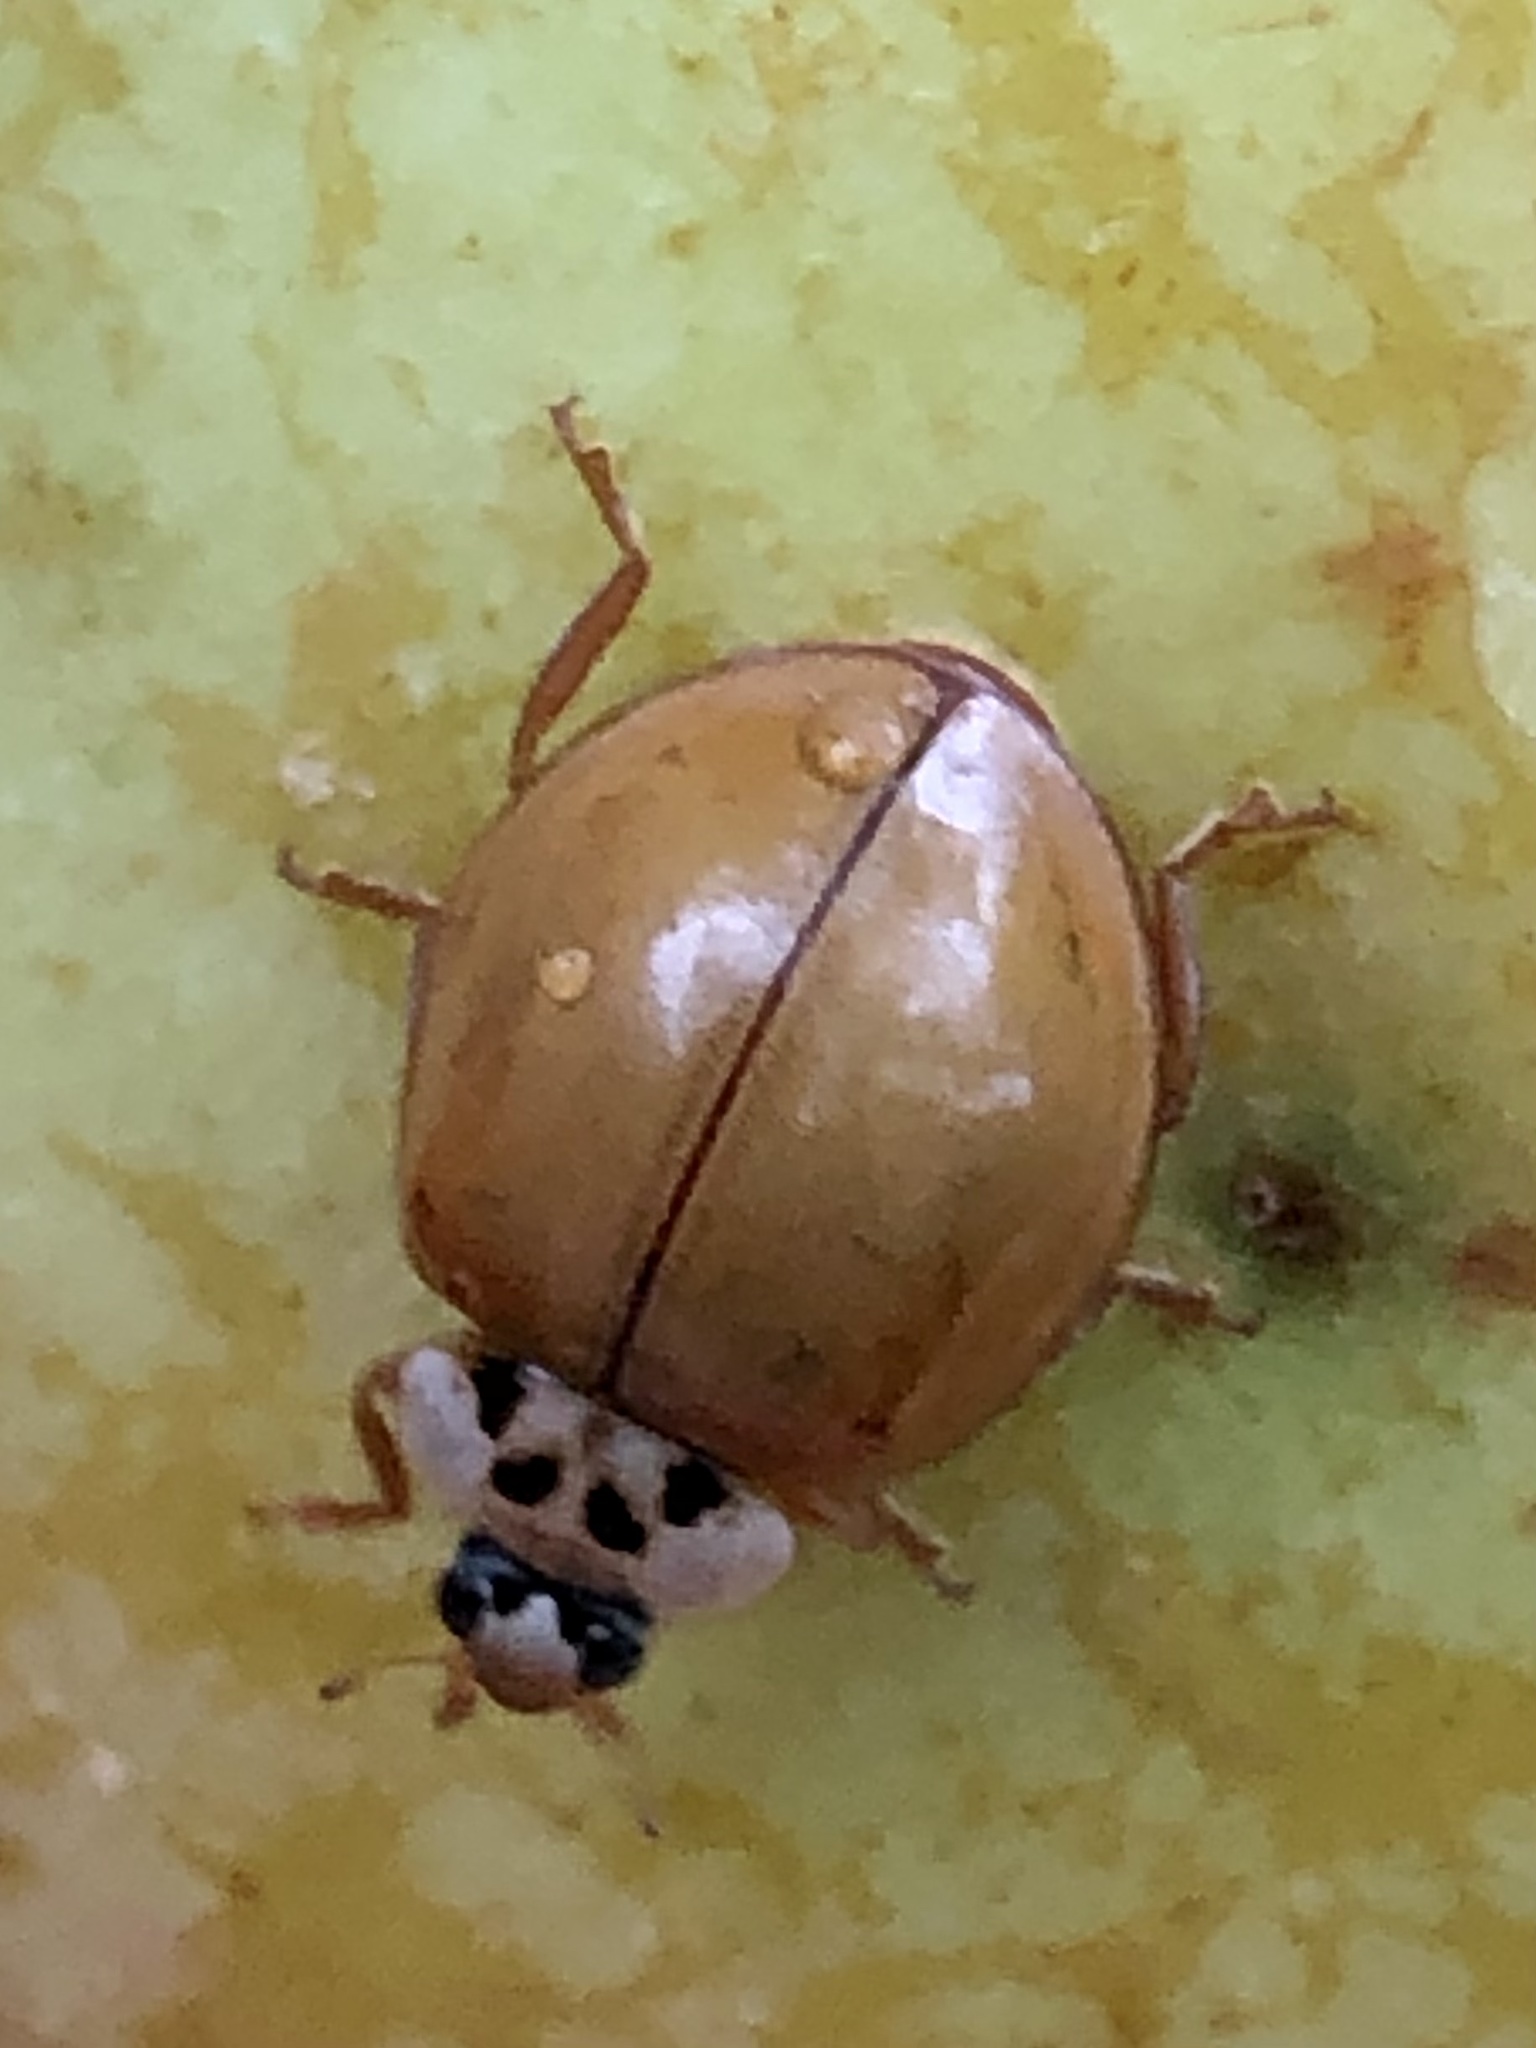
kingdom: Animalia
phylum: Arthropoda
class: Insecta
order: Coleoptera
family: Coccinellidae
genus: Harmonia
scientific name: Harmonia axyridis
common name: Harlequin ladybird
